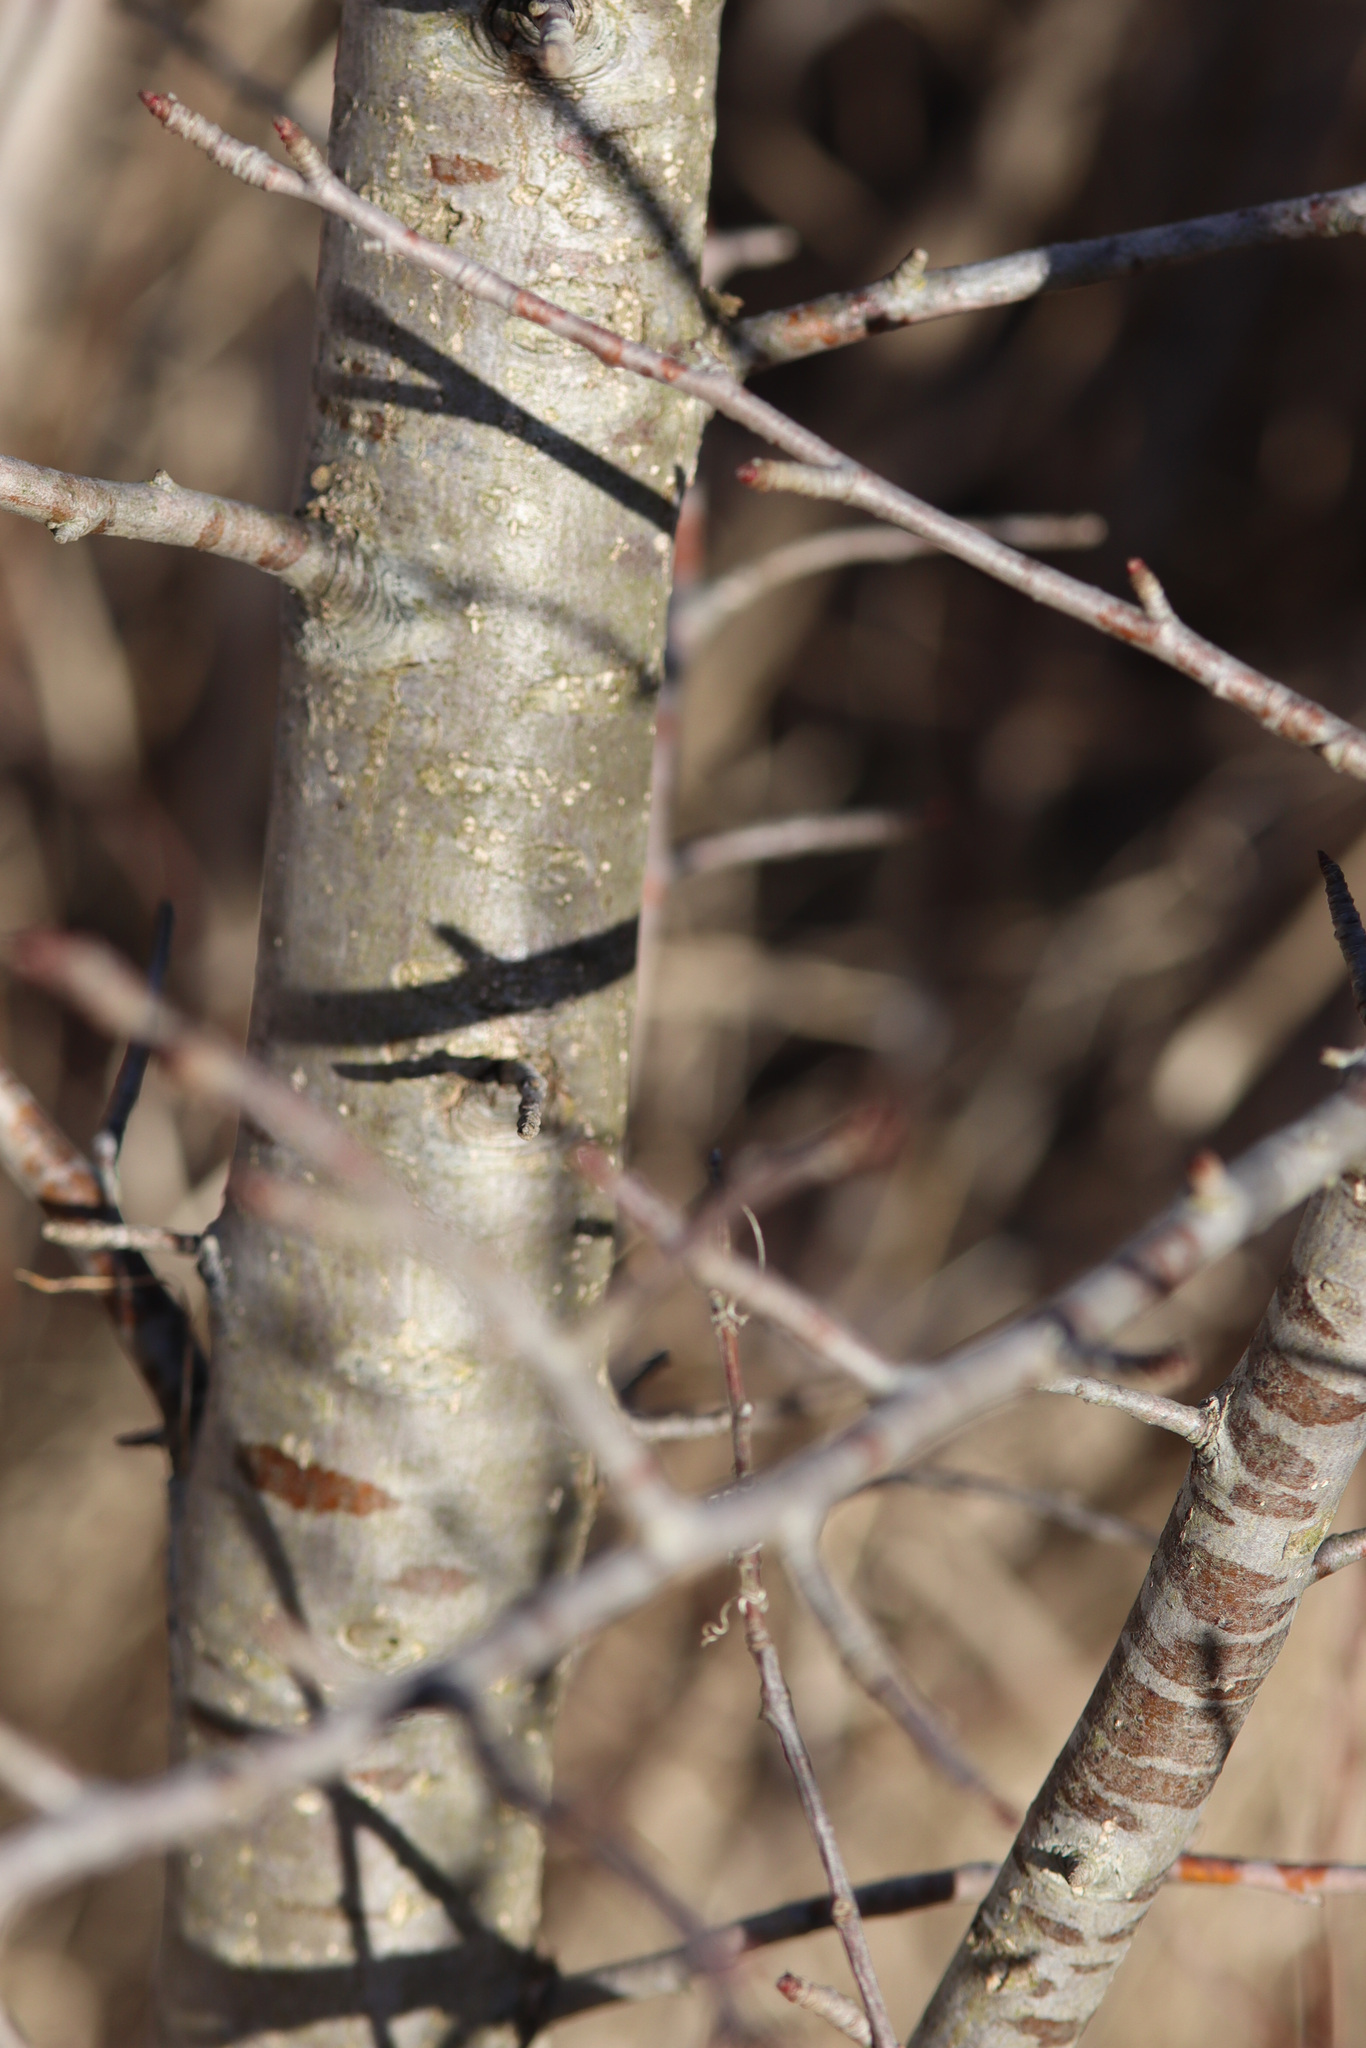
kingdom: Plantae
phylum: Tracheophyta
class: Magnoliopsida
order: Rosales
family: Rhamnaceae
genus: Rhamnus
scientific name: Rhamnus cathartica
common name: Common buckthorn
